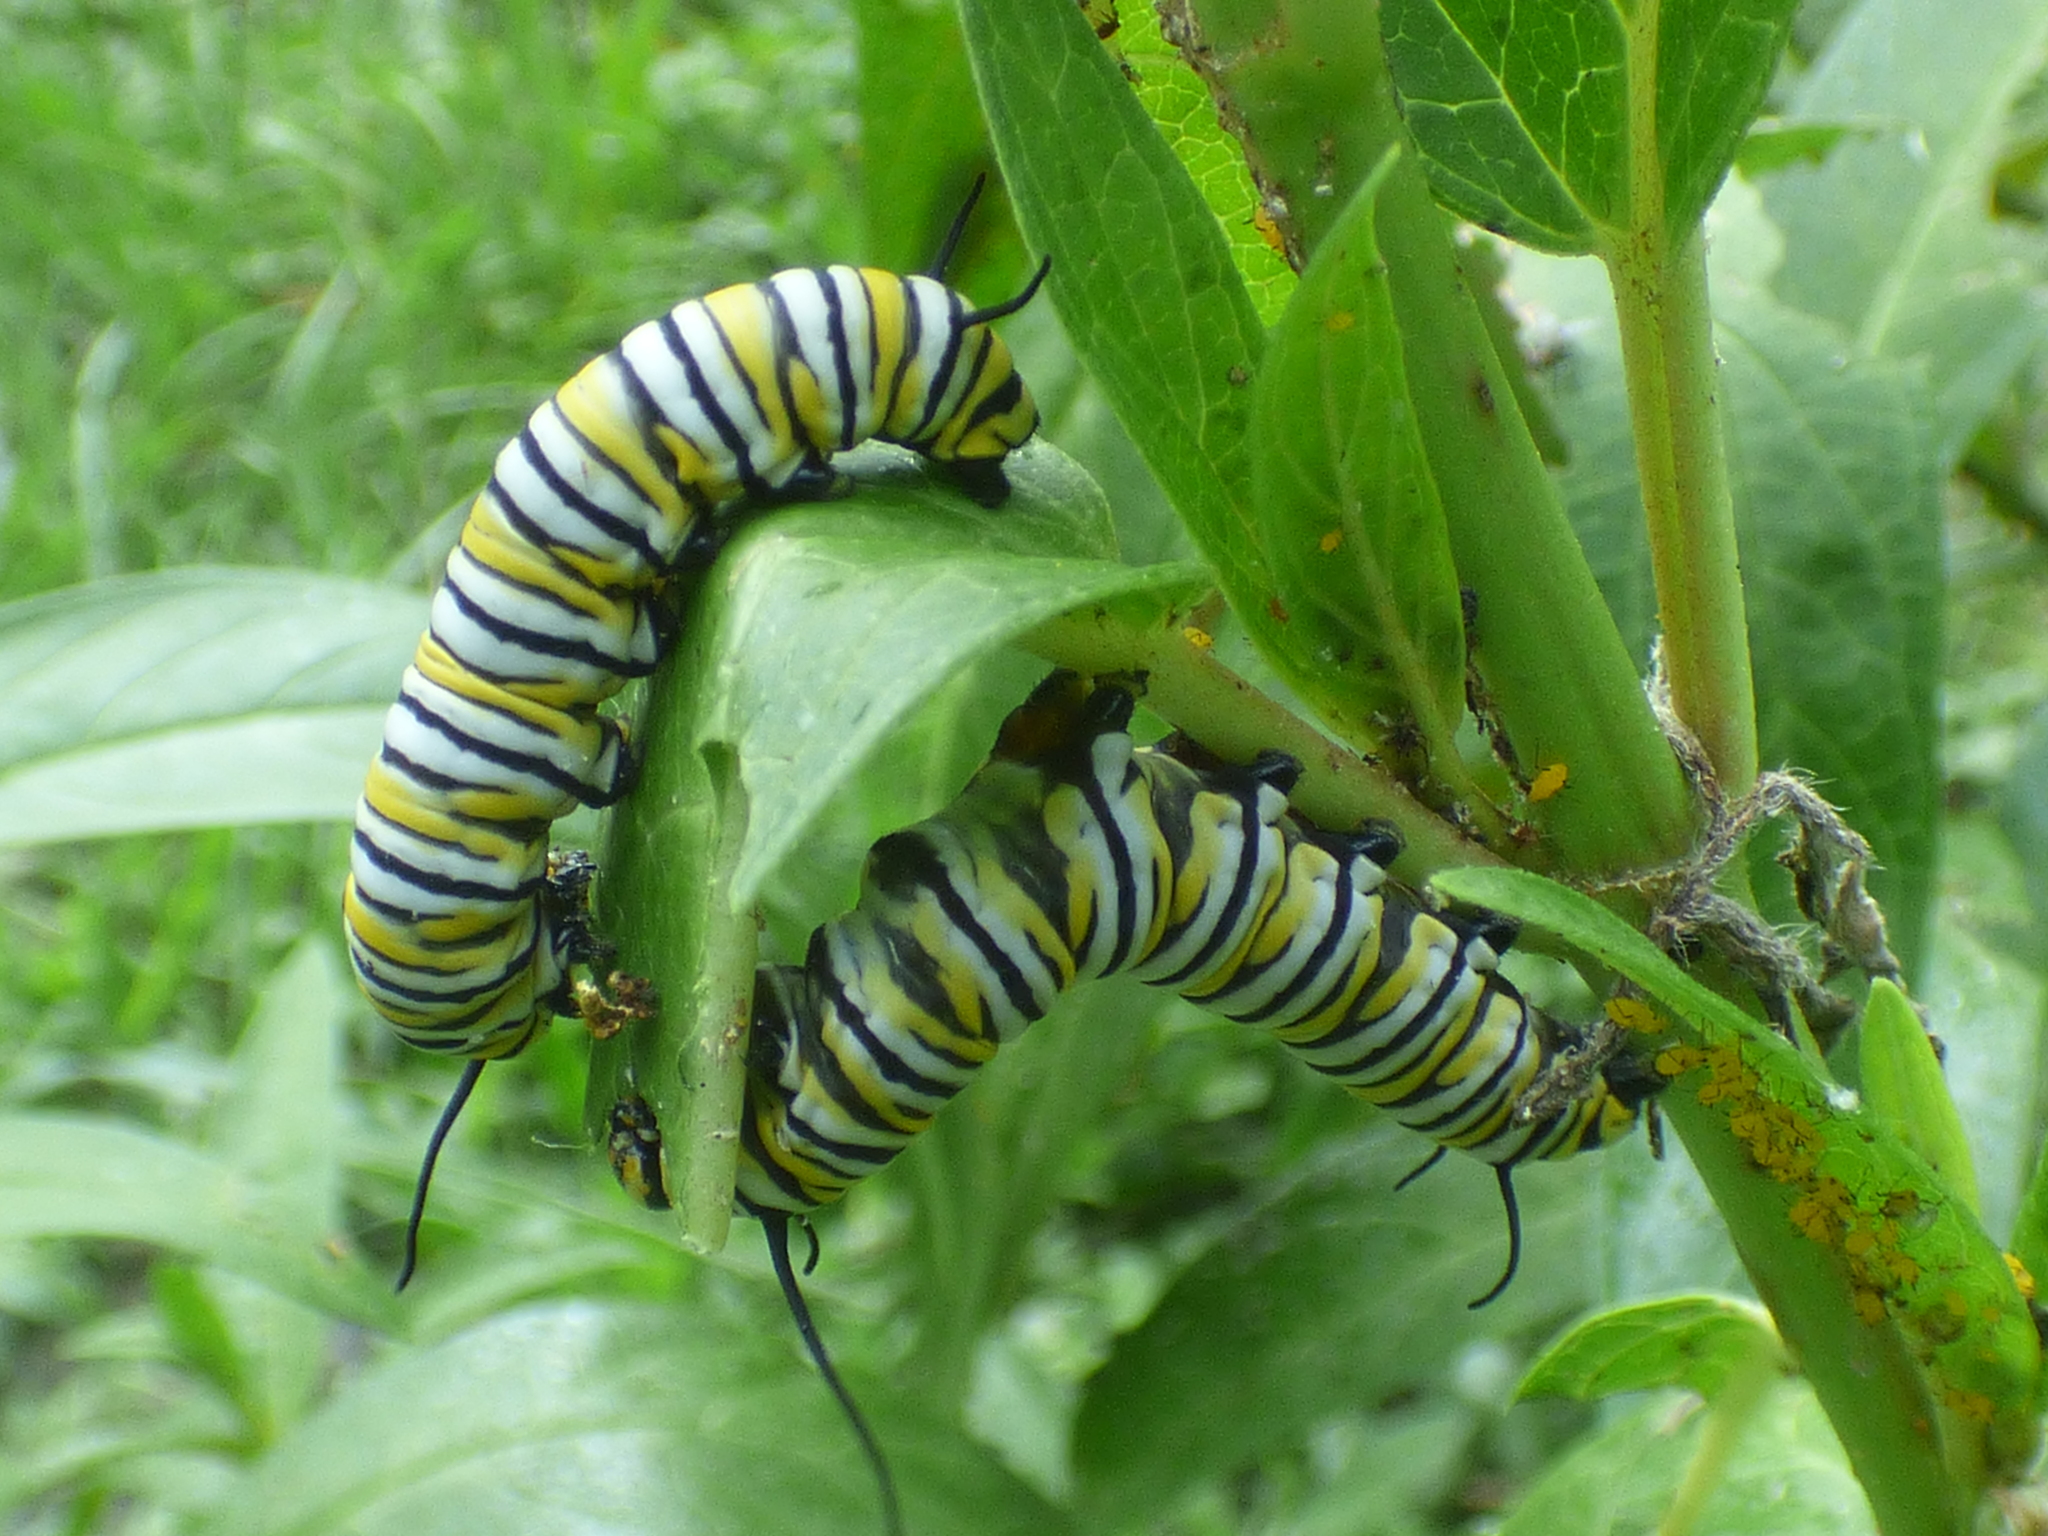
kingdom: Animalia
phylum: Arthropoda
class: Insecta
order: Lepidoptera
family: Nymphalidae
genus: Danaus
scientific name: Danaus plexippus
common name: Monarch
